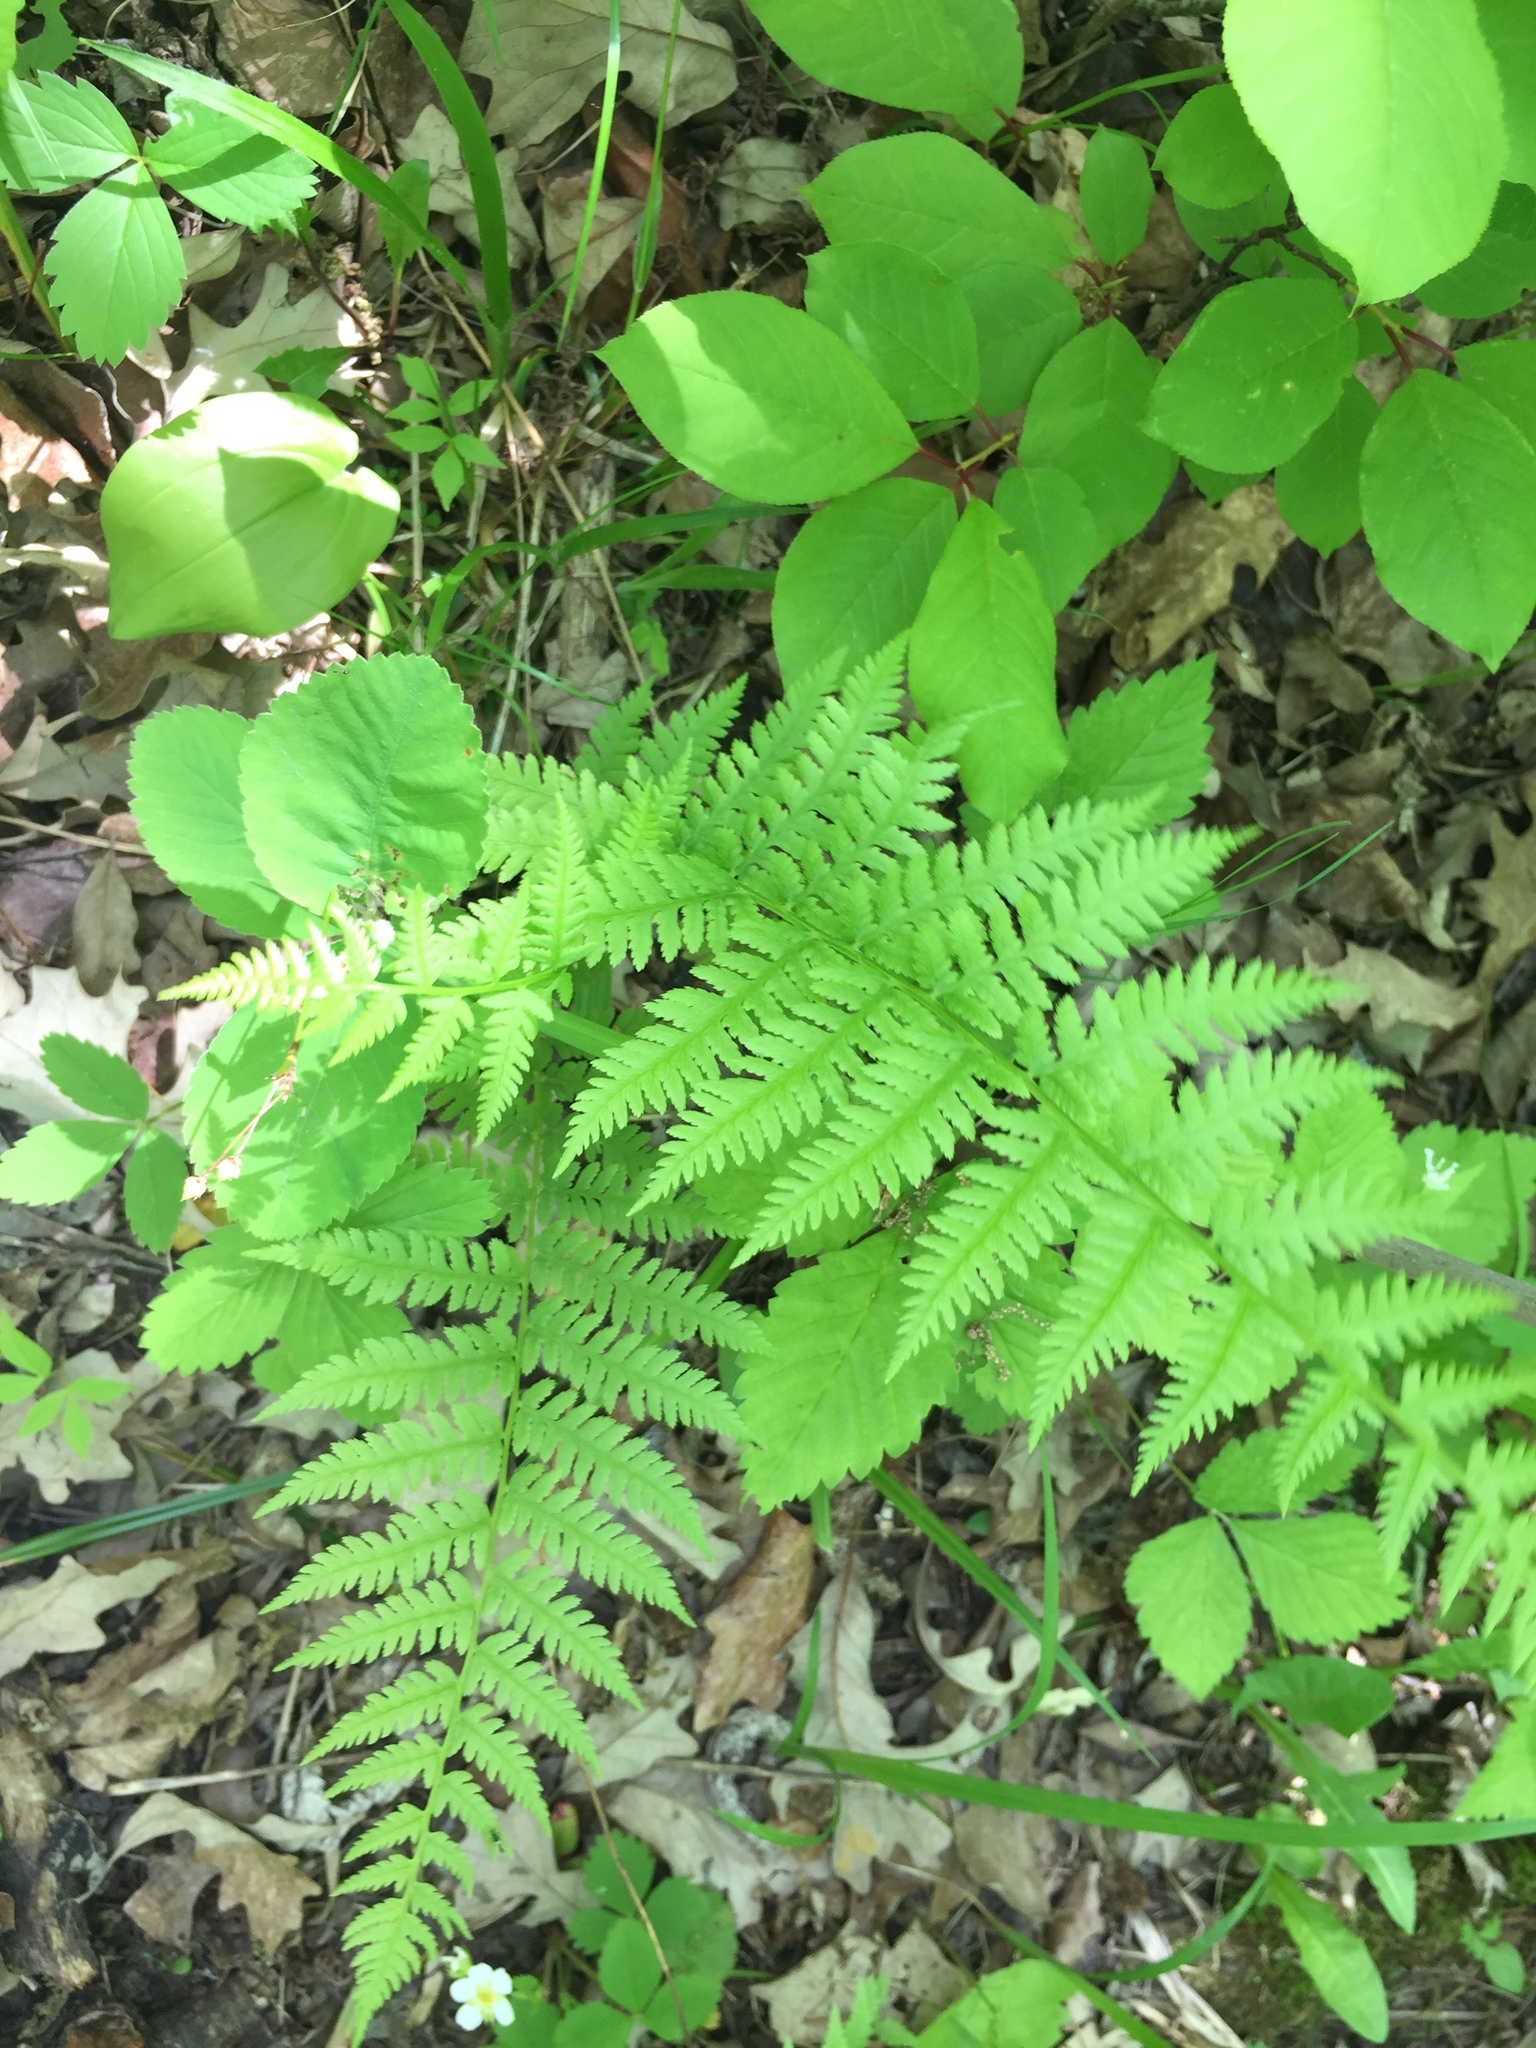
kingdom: Plantae
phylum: Tracheophyta
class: Polypodiopsida
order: Polypodiales
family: Athyriaceae
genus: Athyrium
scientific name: Athyrium angustum
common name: Northern lady fern
